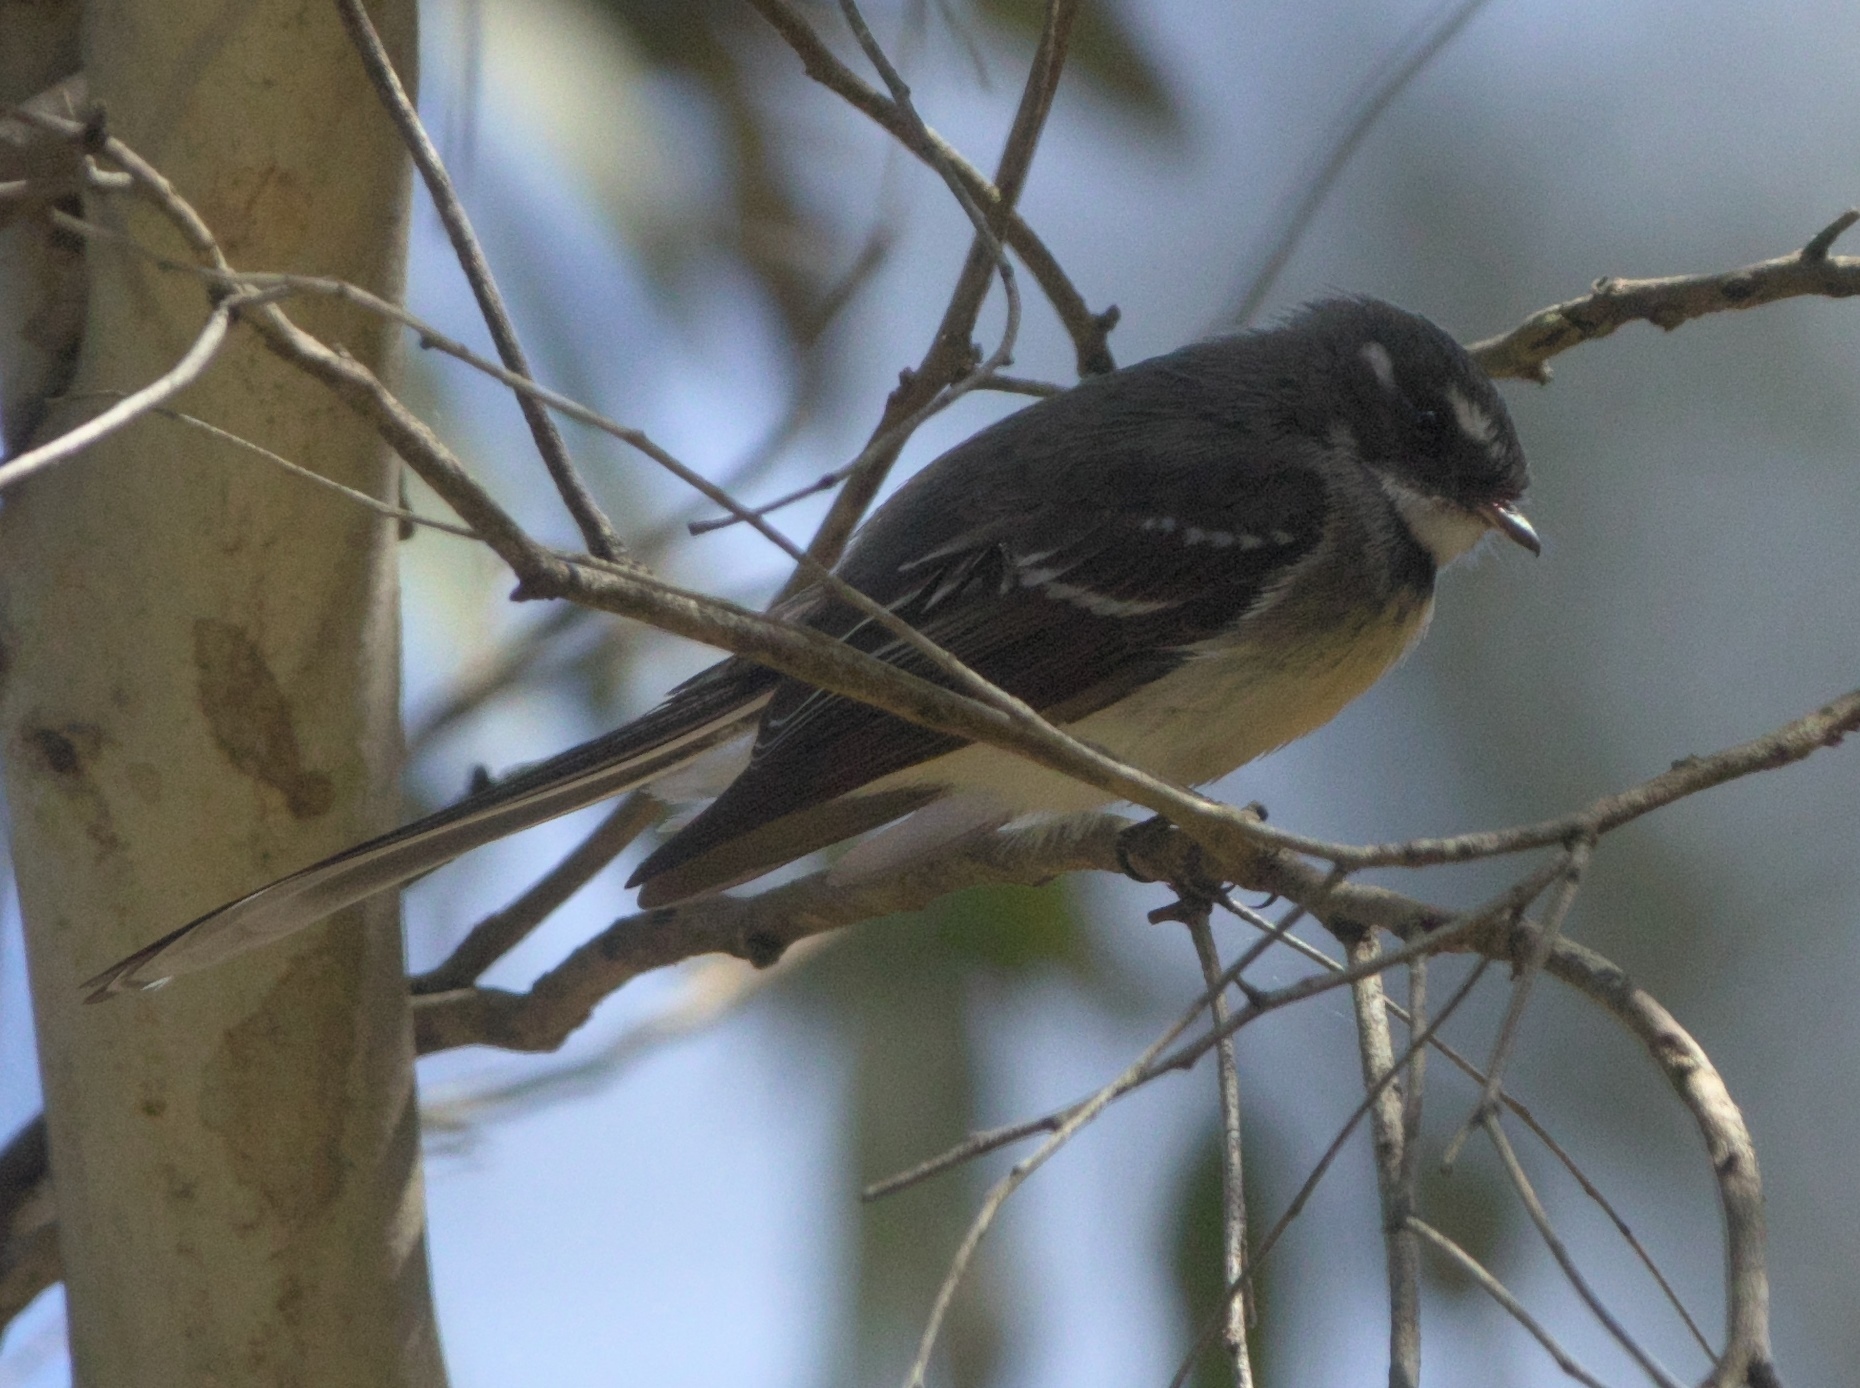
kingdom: Animalia
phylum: Chordata
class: Aves
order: Passeriformes
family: Rhipiduridae
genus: Rhipidura
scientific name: Rhipidura albiscapa
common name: Grey fantail
